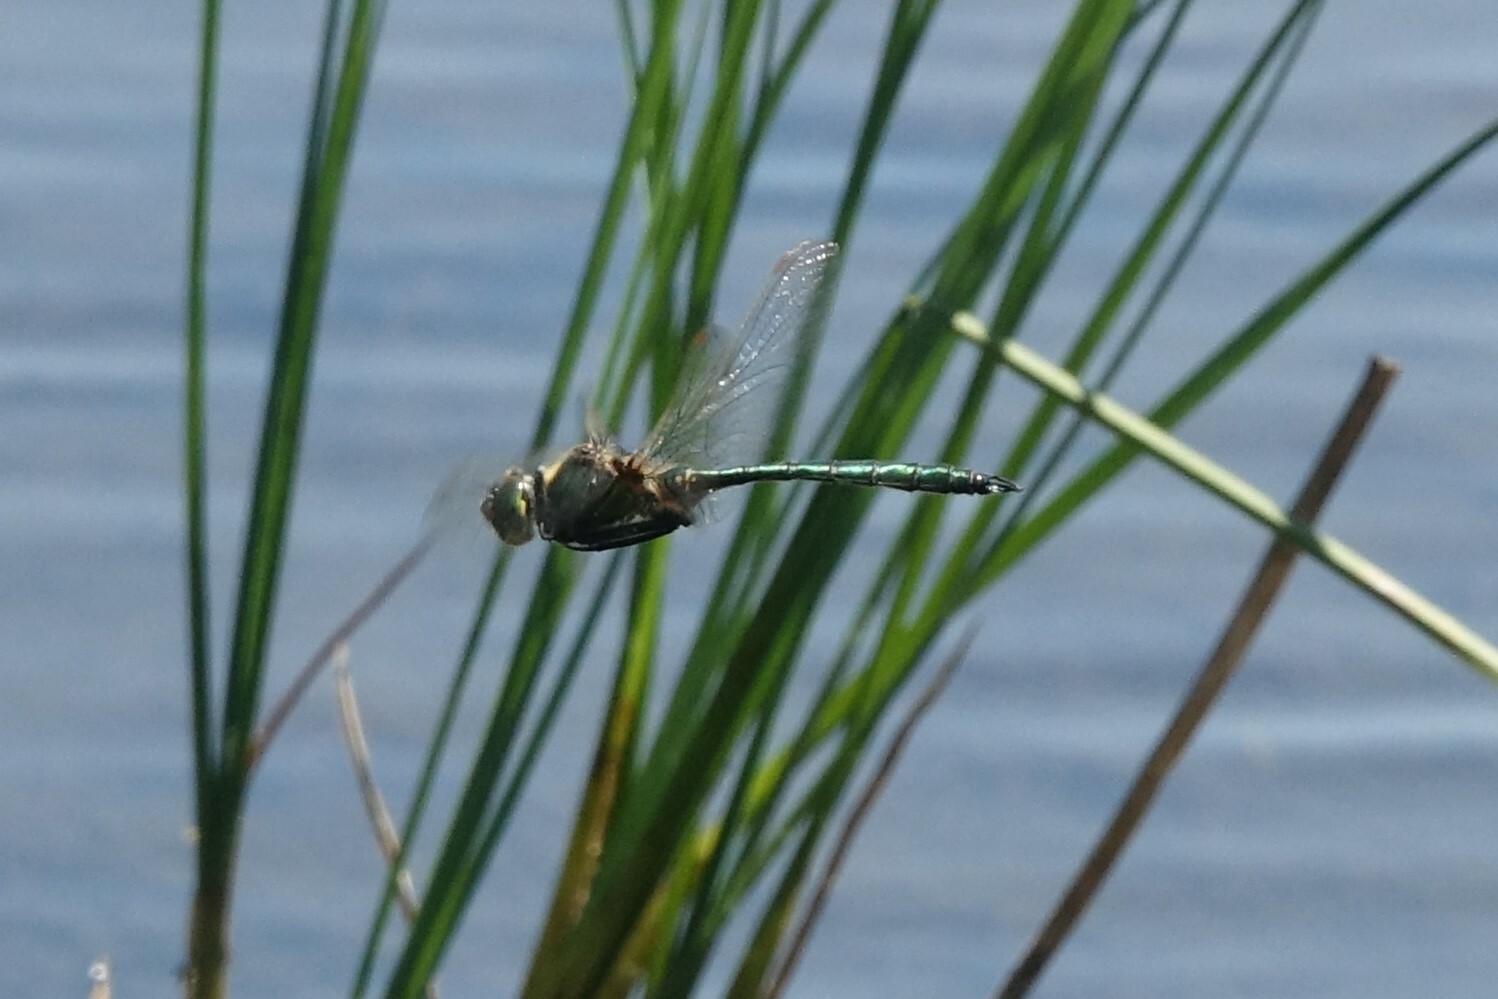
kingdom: Animalia
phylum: Arthropoda
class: Insecta
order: Odonata
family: Corduliidae
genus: Somatochlora
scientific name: Somatochlora metallica
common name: Brilliant emerald
